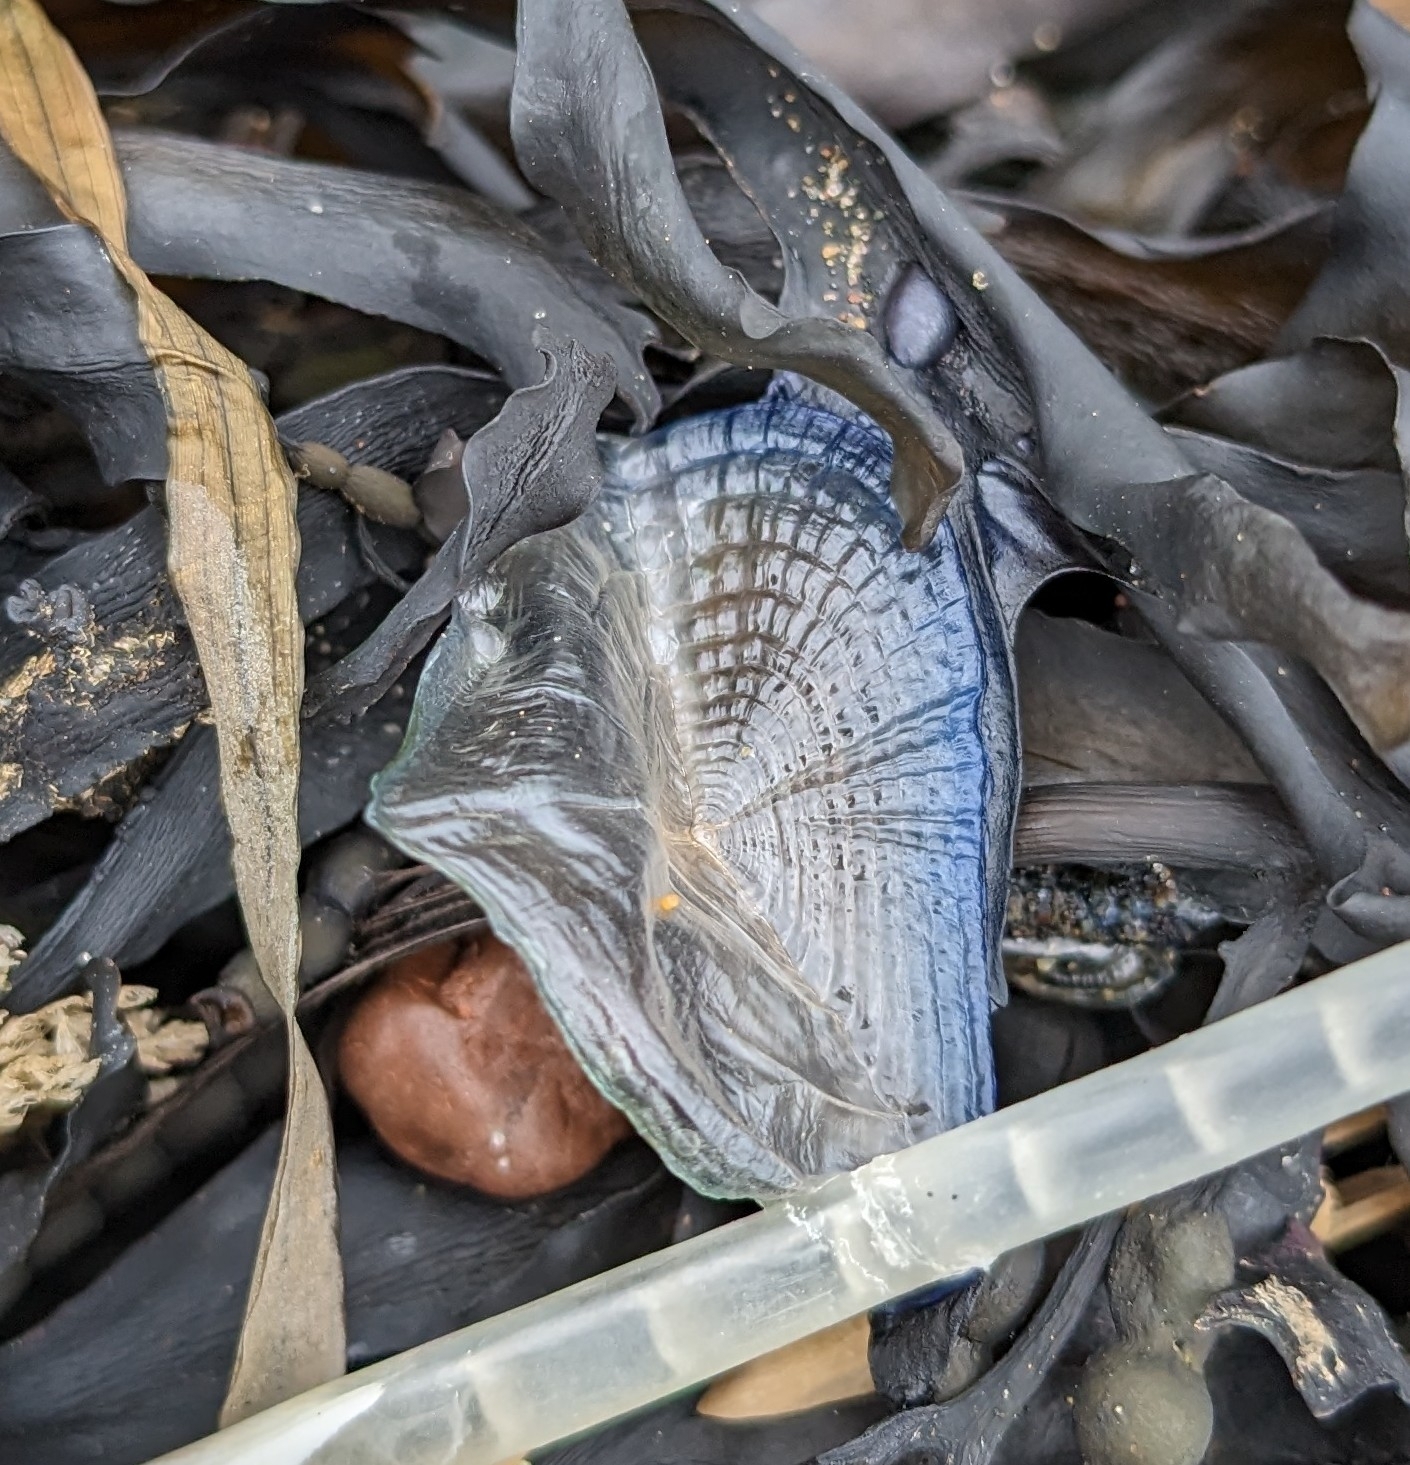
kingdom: Animalia
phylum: Cnidaria
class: Hydrozoa
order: Anthoathecata
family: Porpitidae
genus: Velella
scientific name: Velella velella
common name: By-the-wind-sailor
